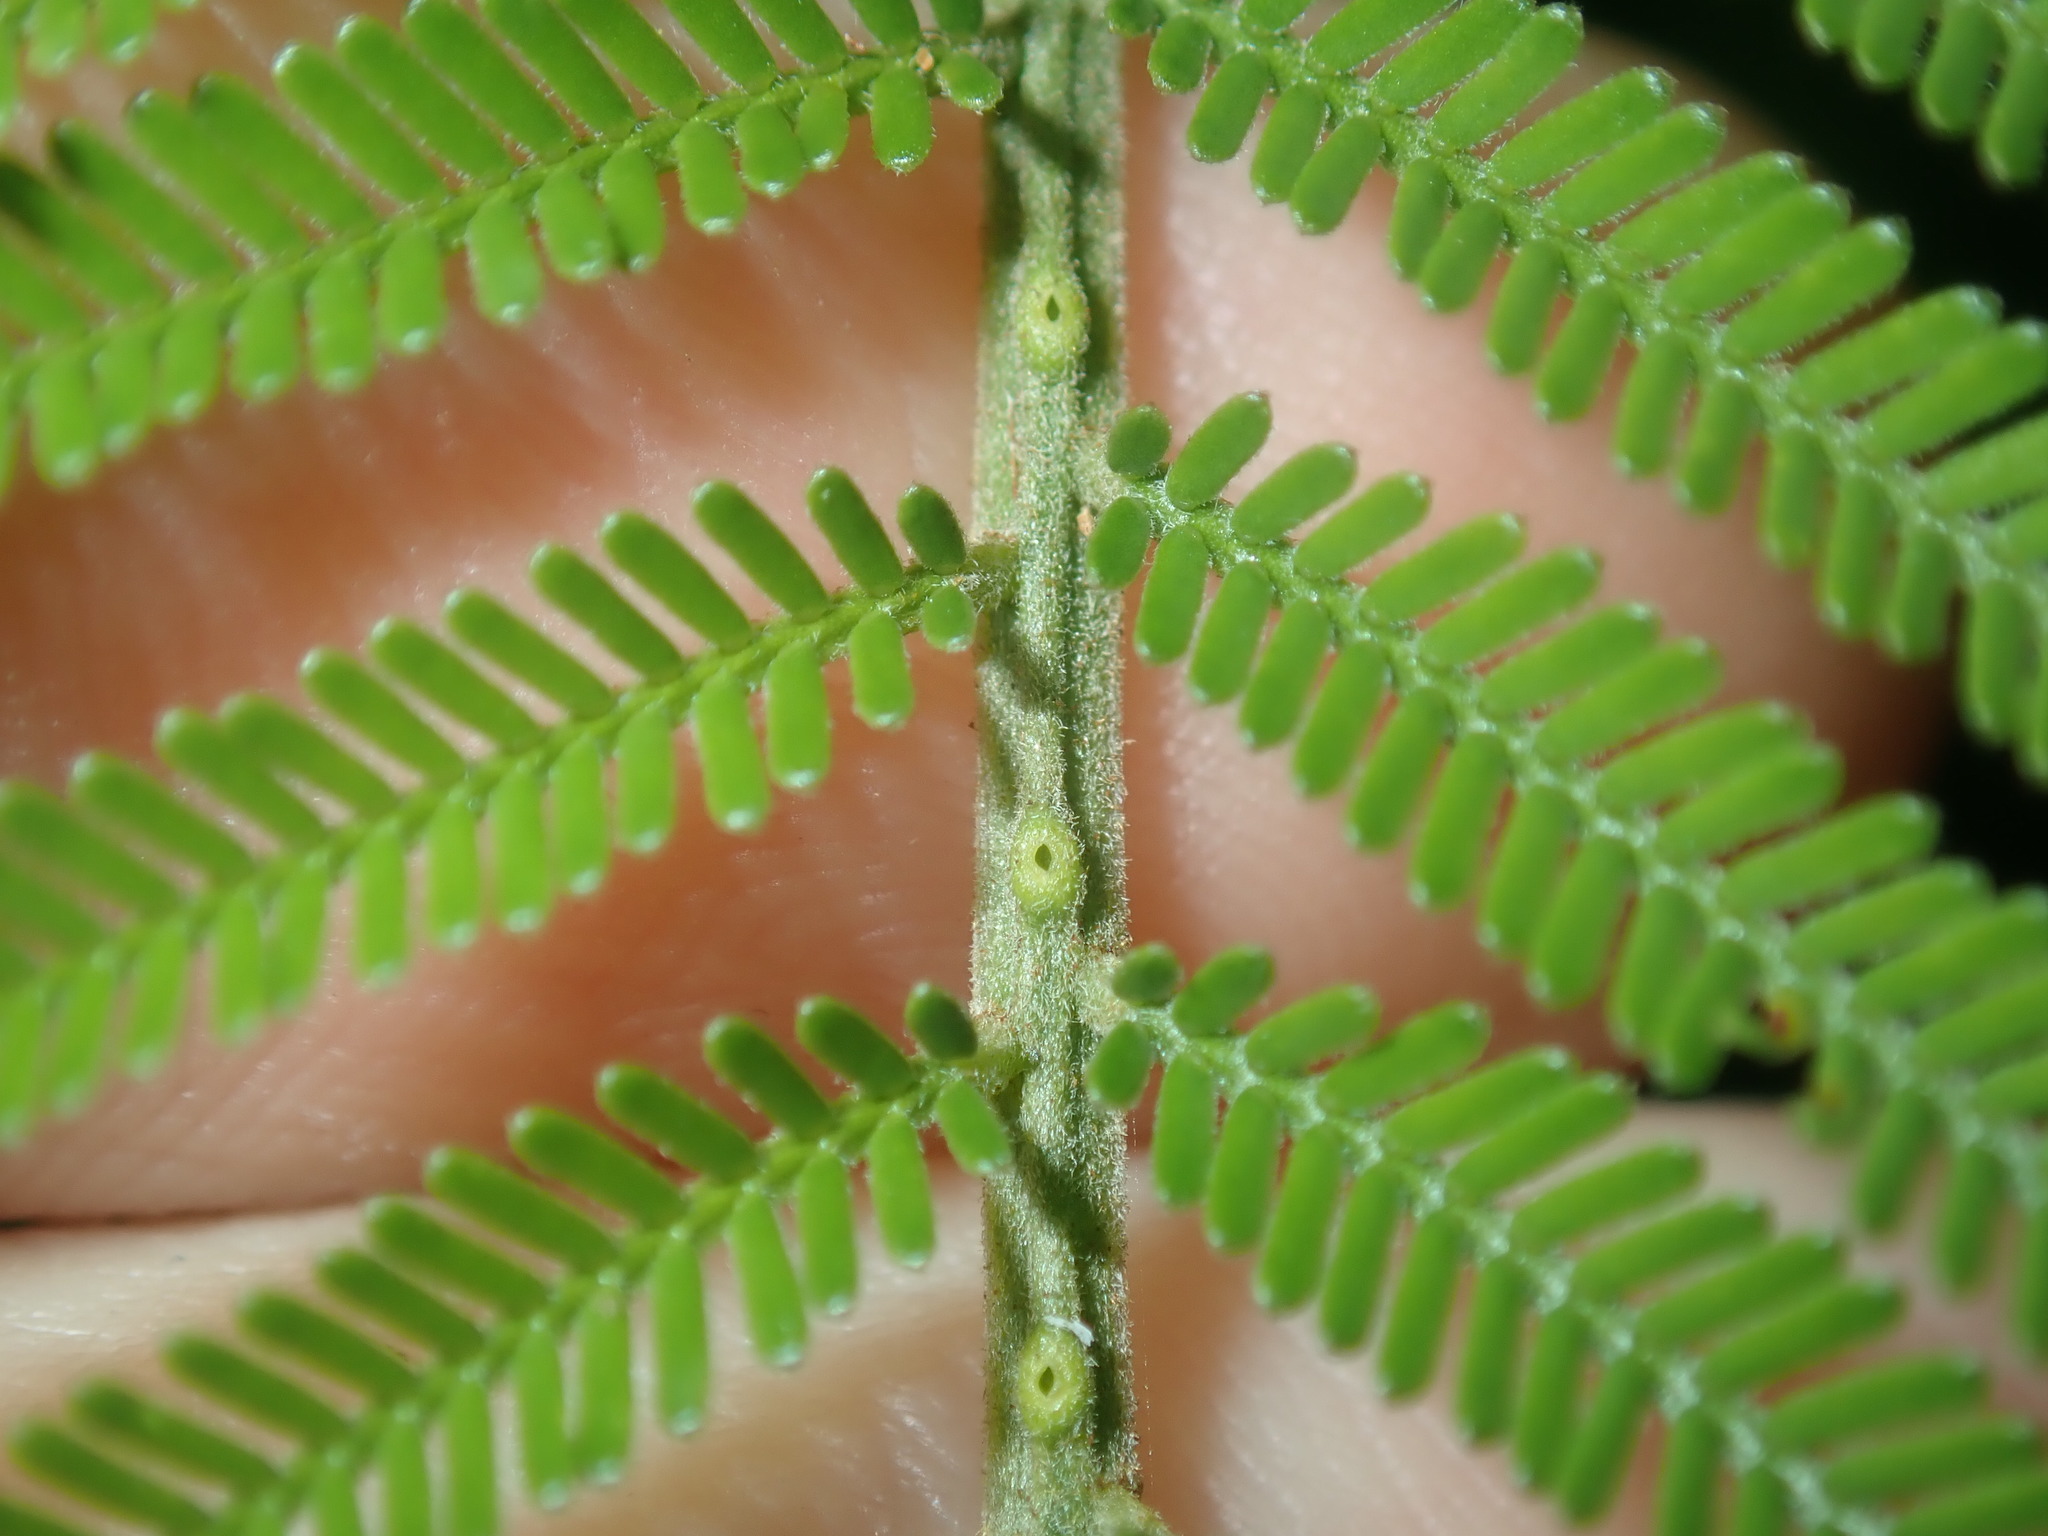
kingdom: Plantae
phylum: Tracheophyta
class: Magnoliopsida
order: Fabales
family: Fabaceae
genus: Acacia
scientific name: Acacia mearnsii
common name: Black wattle
